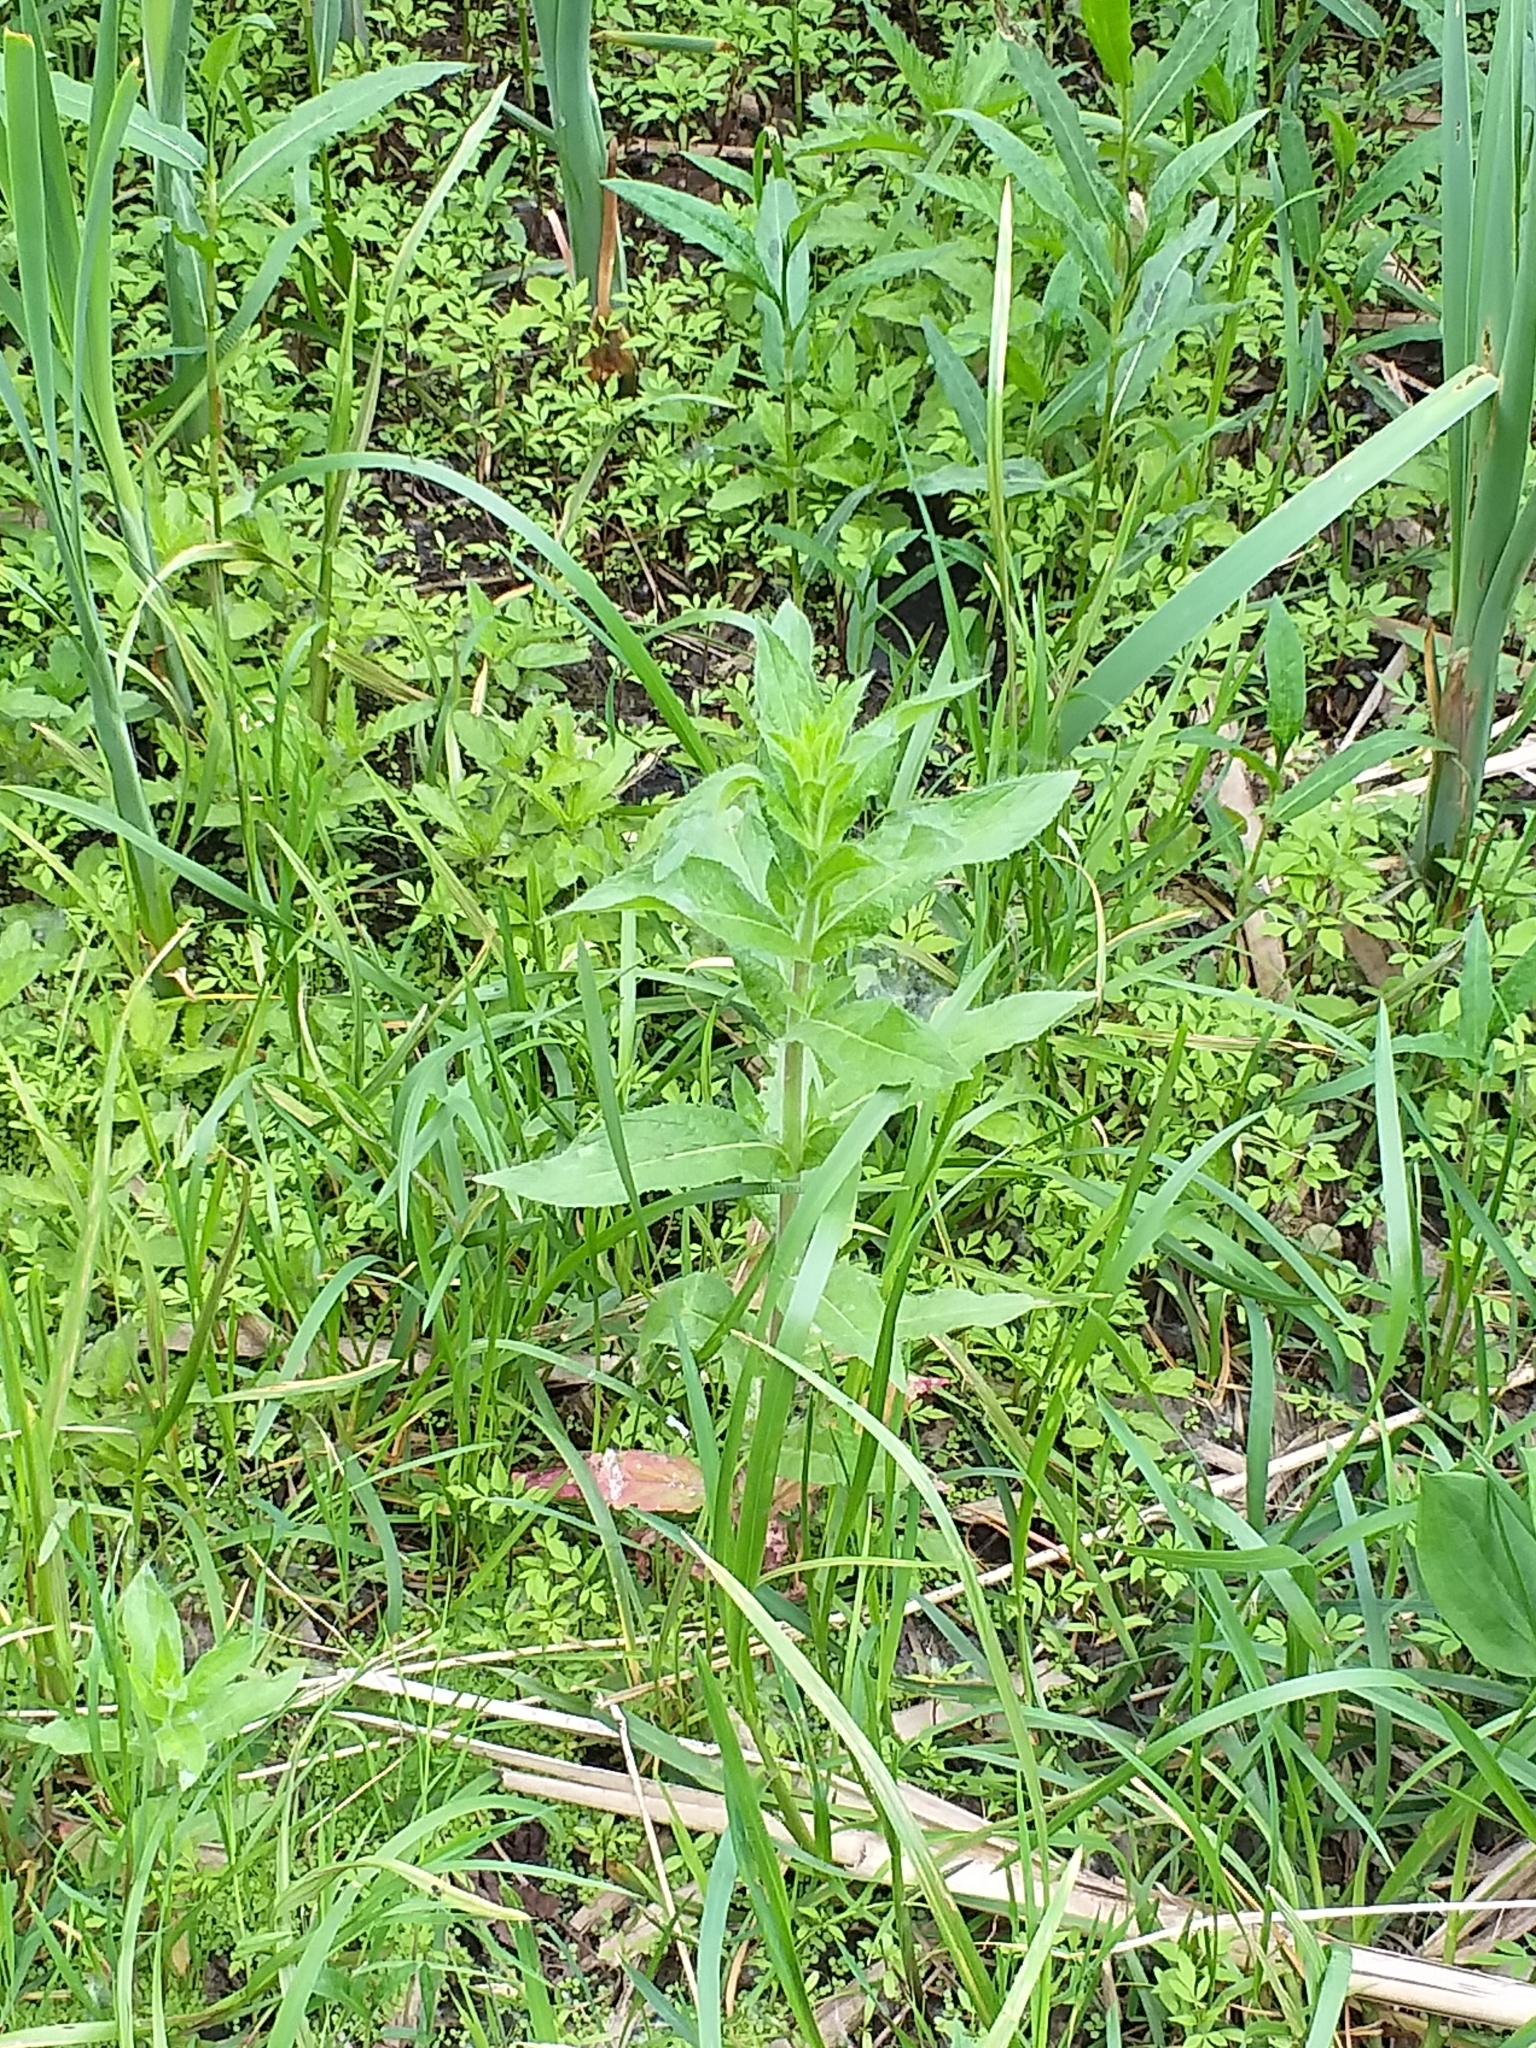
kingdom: Plantae
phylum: Tracheophyta
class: Magnoliopsida
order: Myrtales
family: Onagraceae
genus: Epilobium
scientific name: Epilobium hirsutum
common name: Great willowherb
